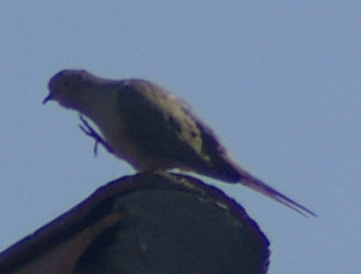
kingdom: Animalia
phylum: Chordata
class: Aves
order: Columbiformes
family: Columbidae
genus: Zenaida
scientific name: Zenaida macroura
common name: Mourning dove
